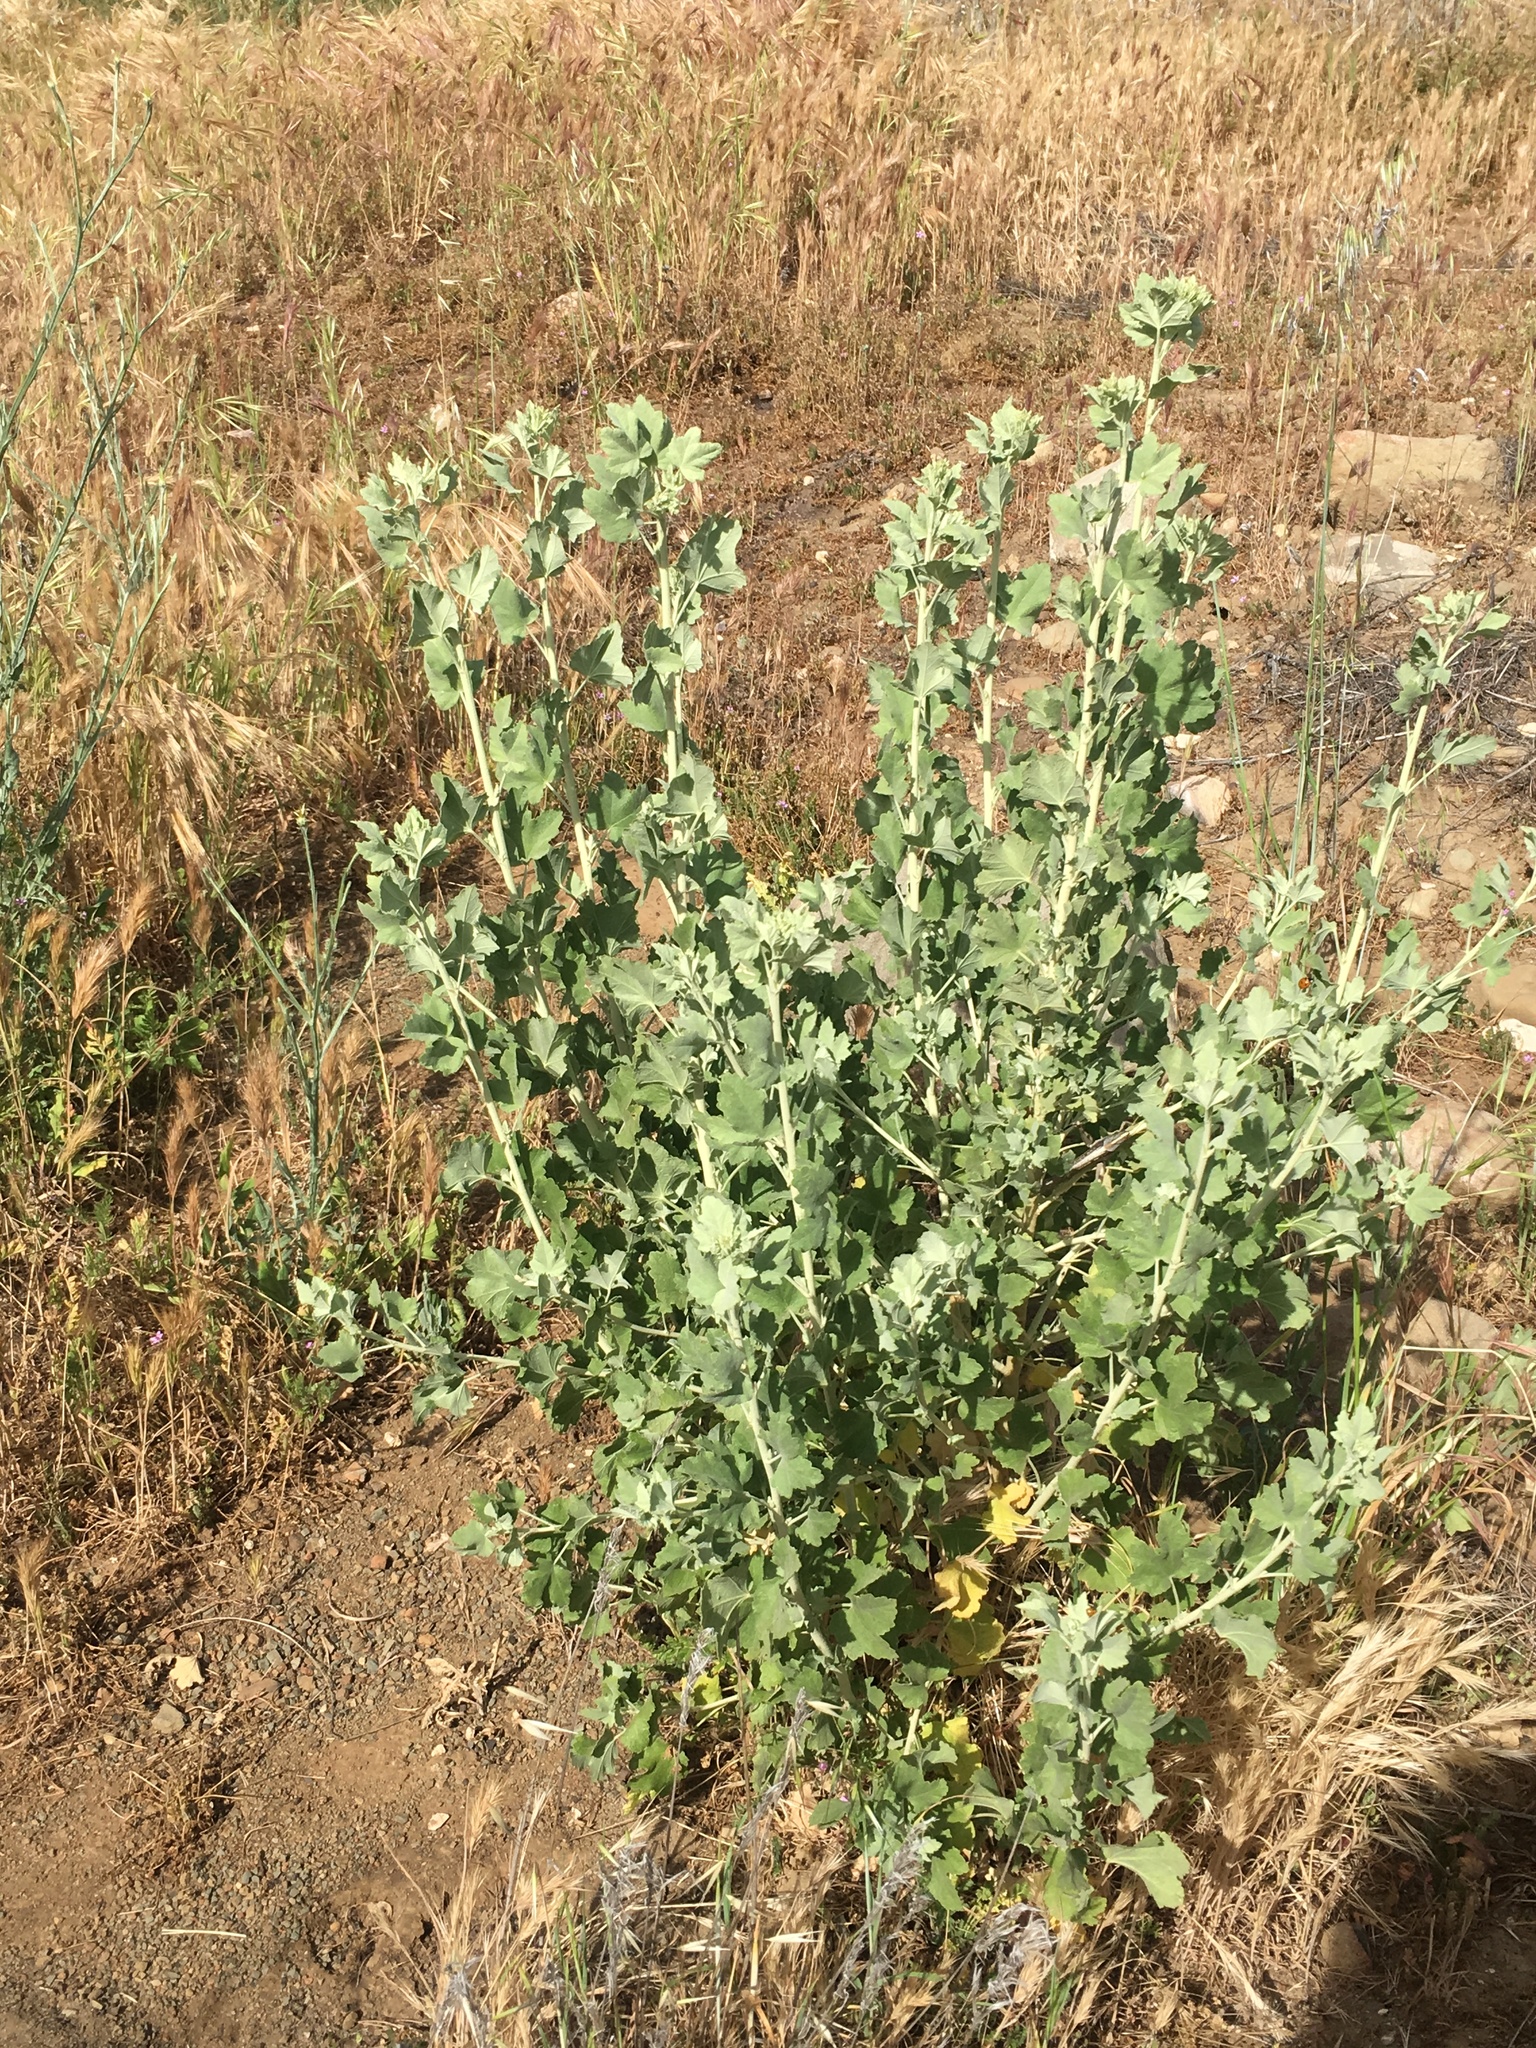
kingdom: Plantae
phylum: Tracheophyta
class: Magnoliopsida
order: Asterales
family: Asteraceae
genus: Brickellia
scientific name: Brickellia californica
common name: California brickellbush
